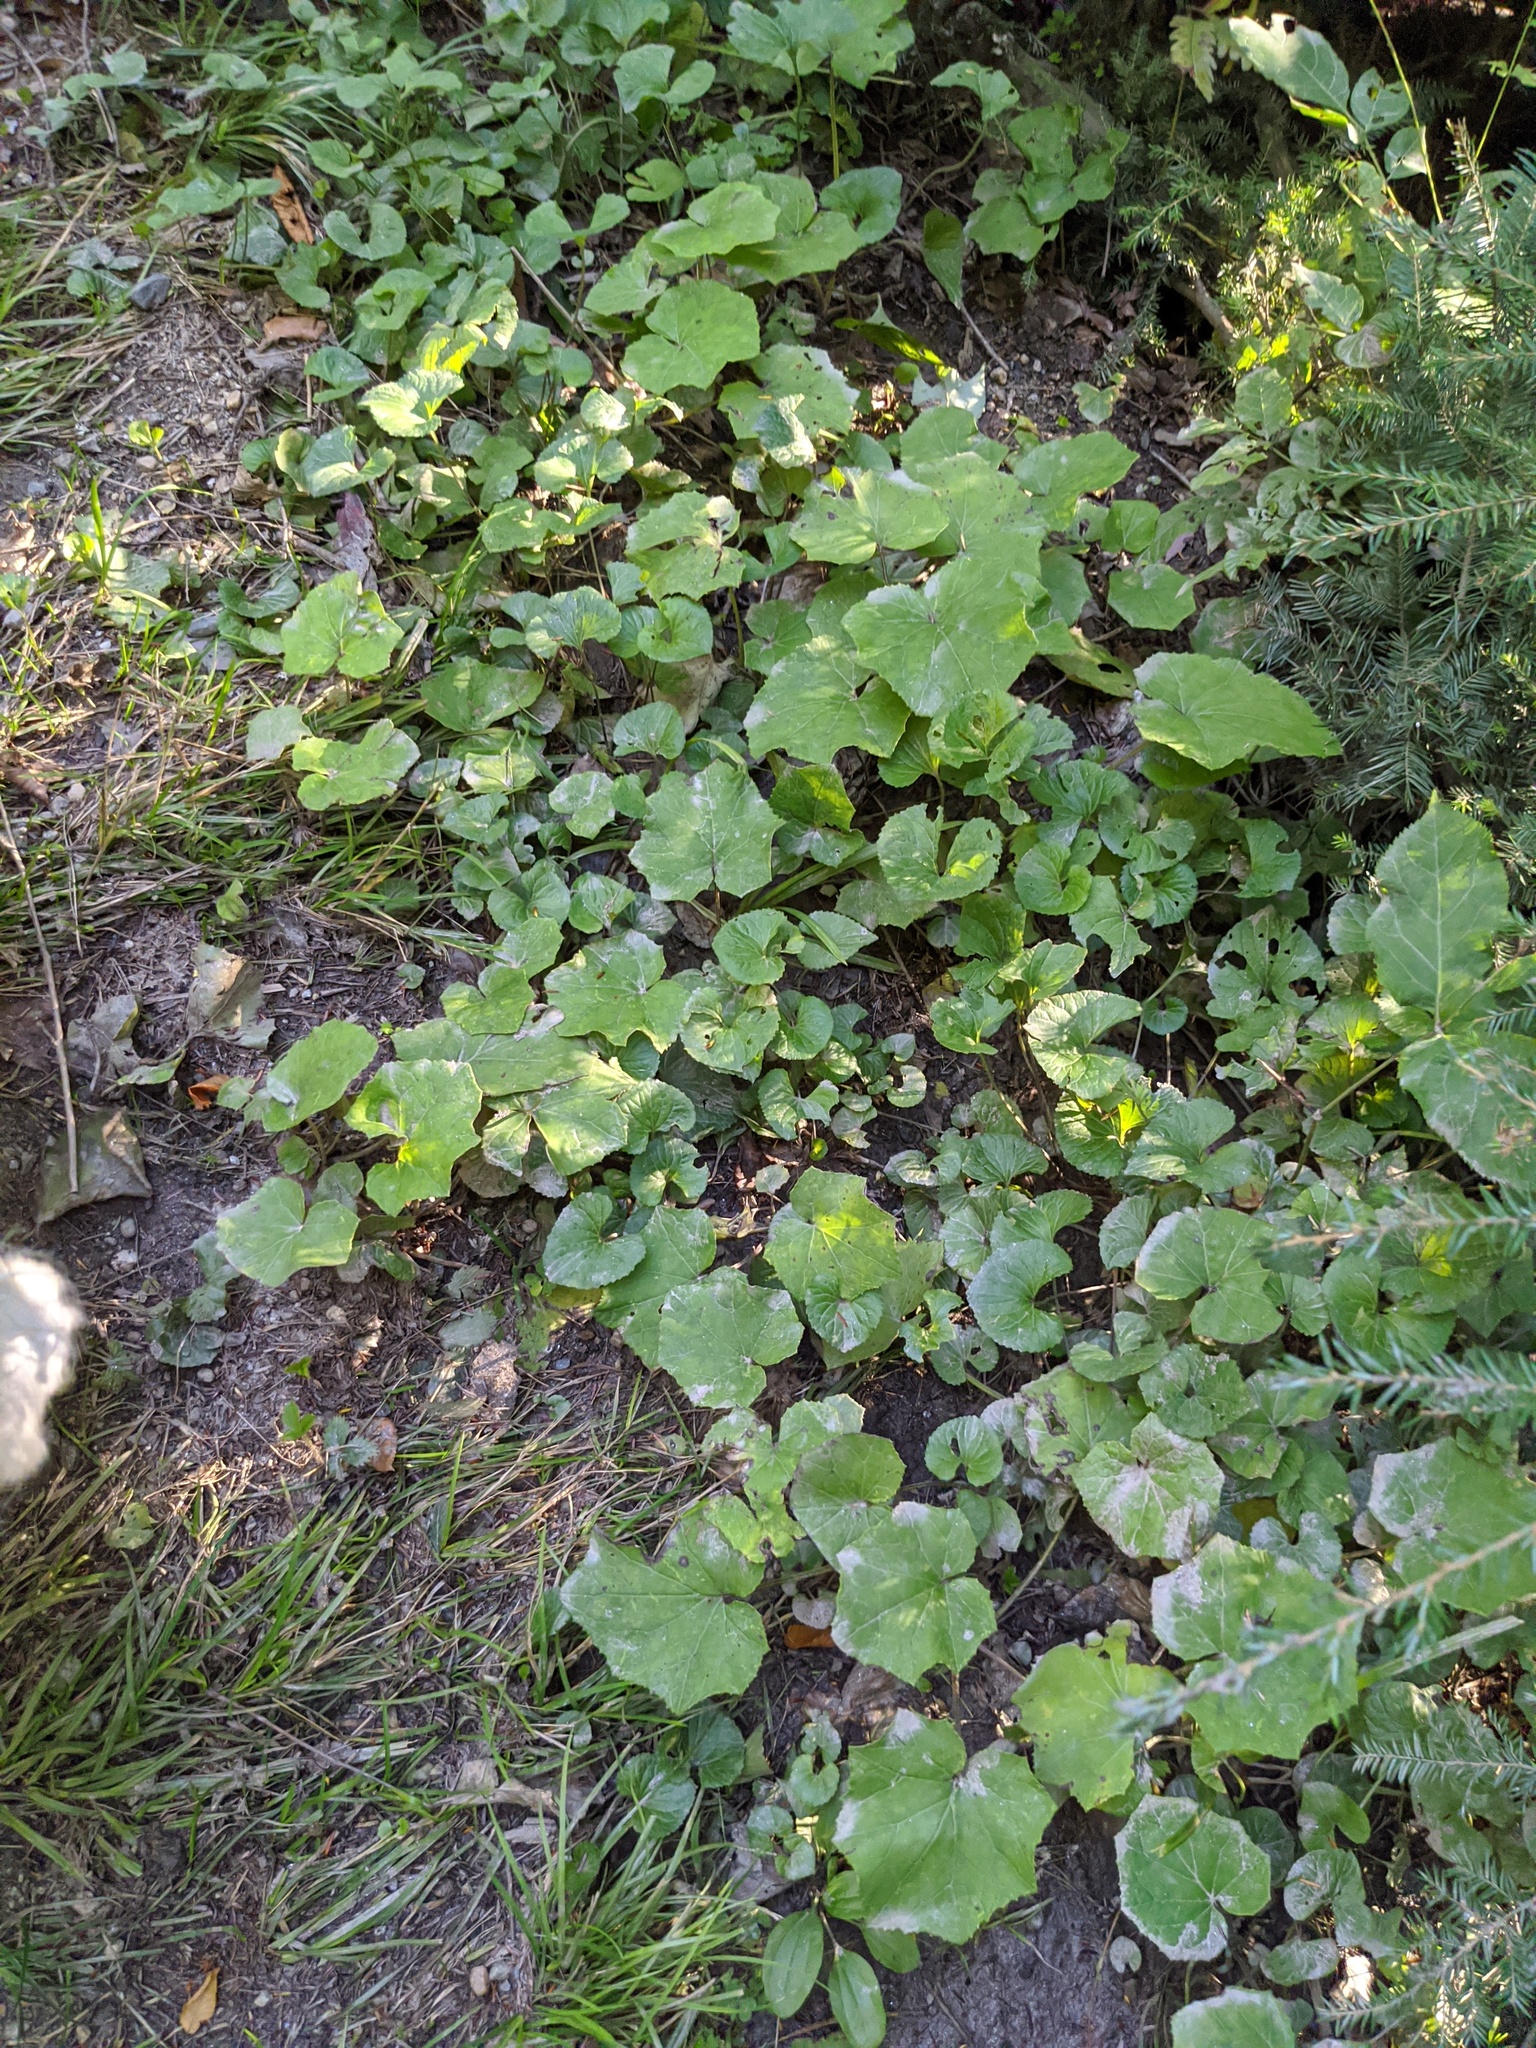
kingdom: Plantae
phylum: Tracheophyta
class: Pinopsida
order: Pinales
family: Pinaceae
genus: Tsuga
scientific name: Tsuga canadensis
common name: Eastern hemlock
